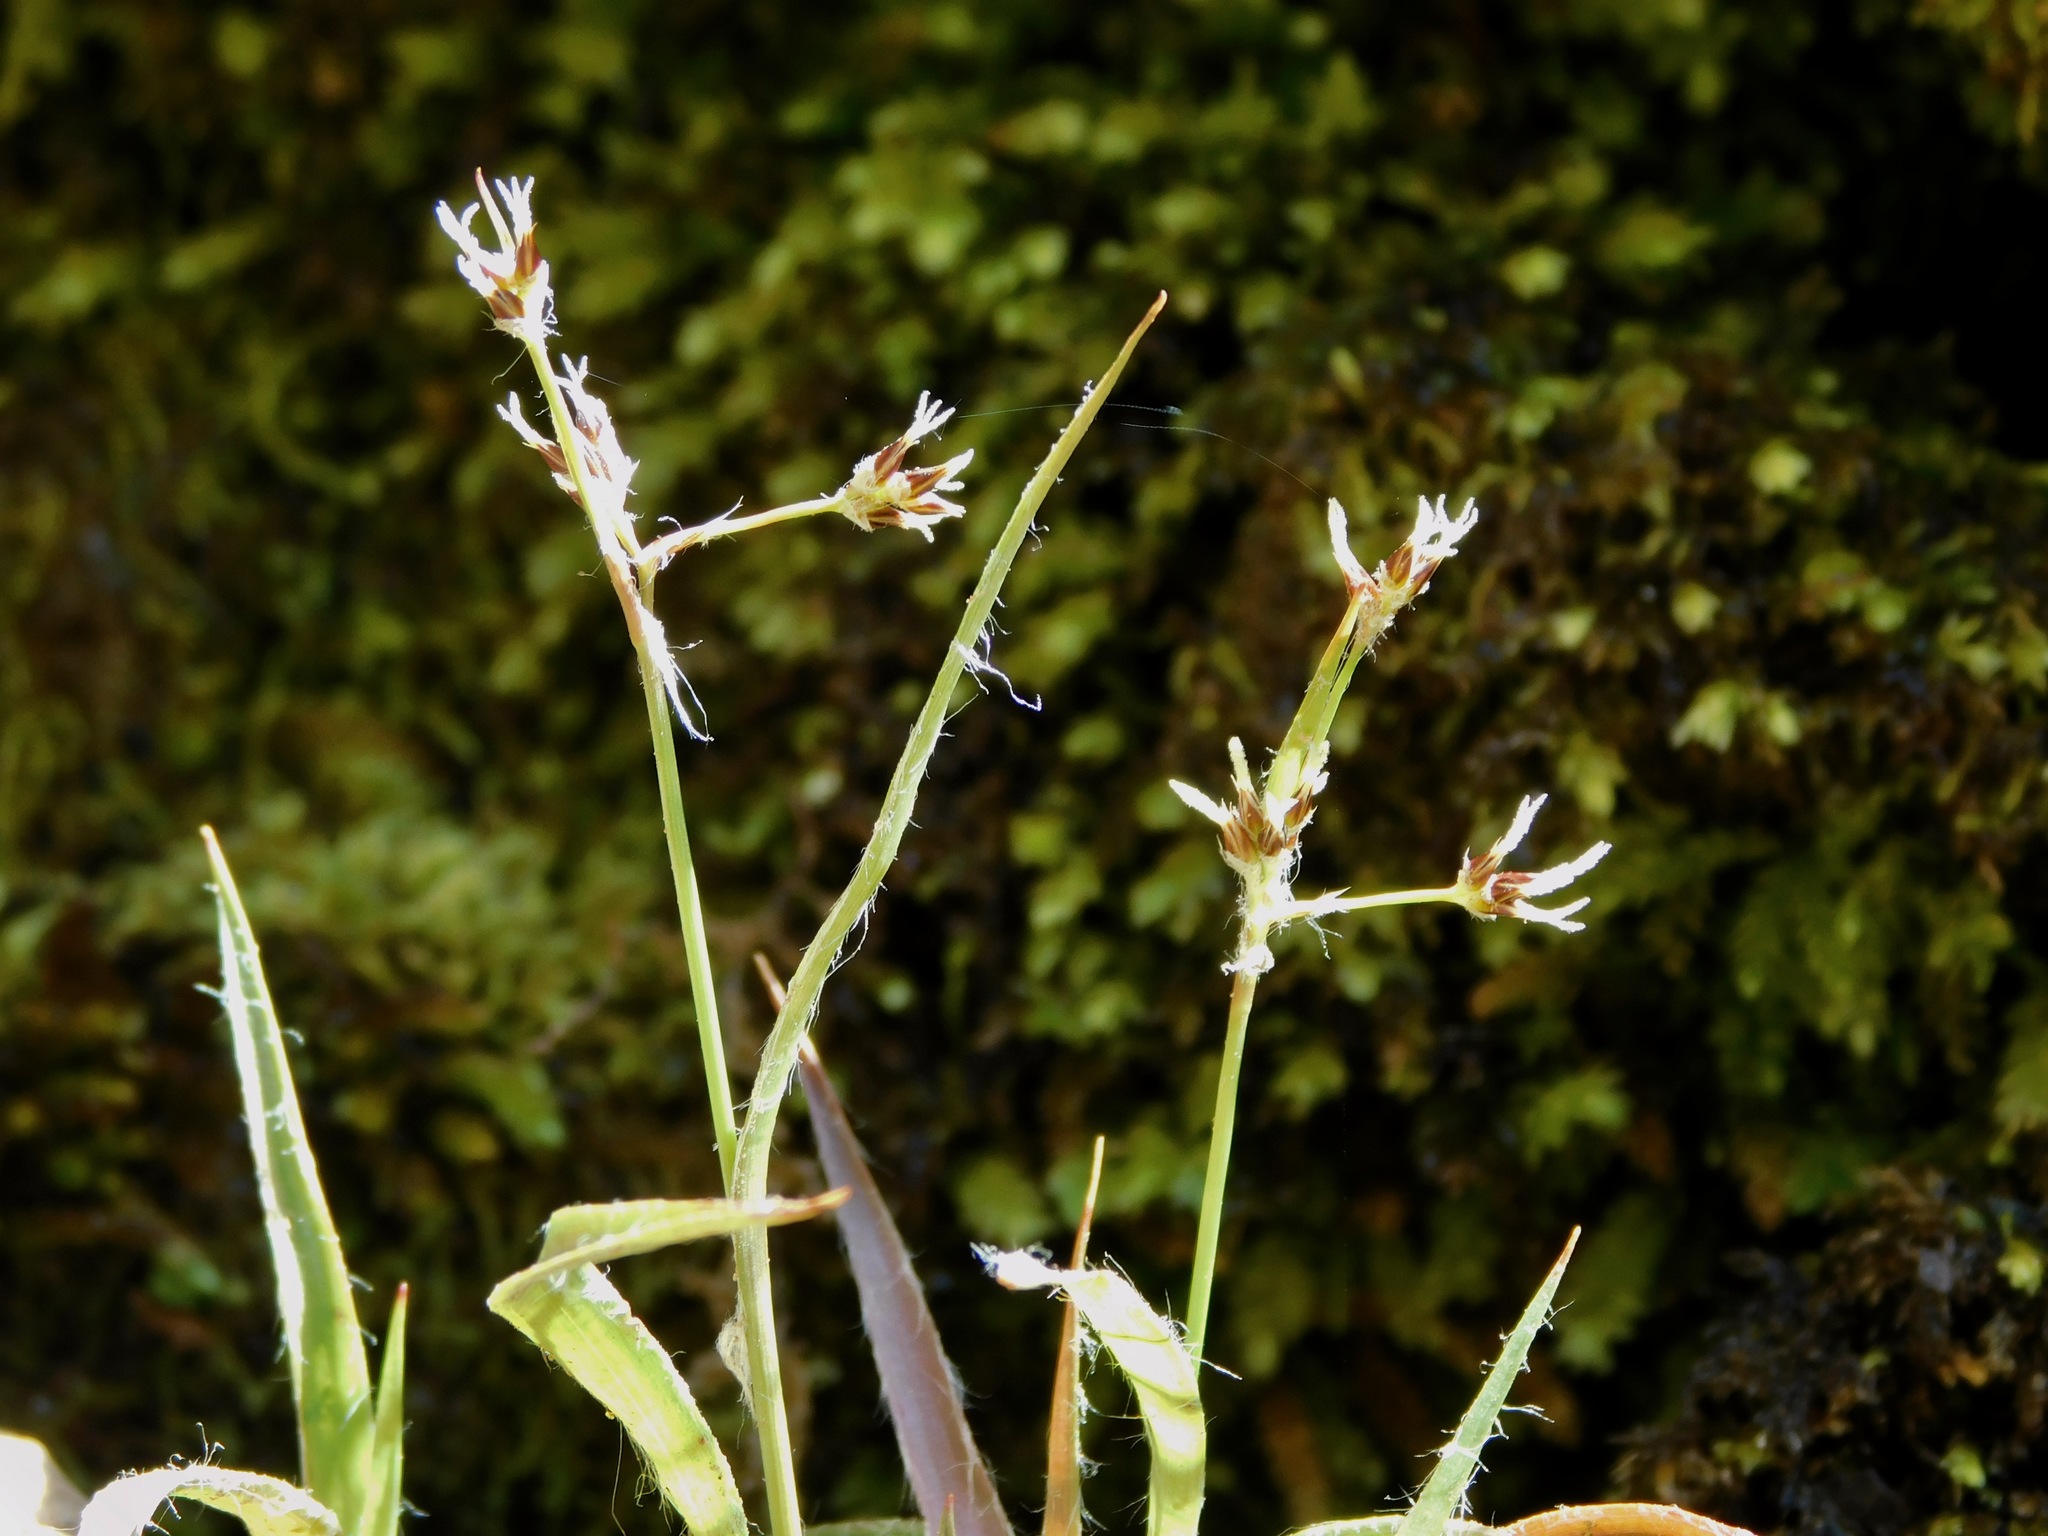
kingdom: Plantae
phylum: Tracheophyta
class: Liliopsida
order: Poales
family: Juncaceae
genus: Luzula
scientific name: Luzula echinata
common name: Hedgehog woodrush
